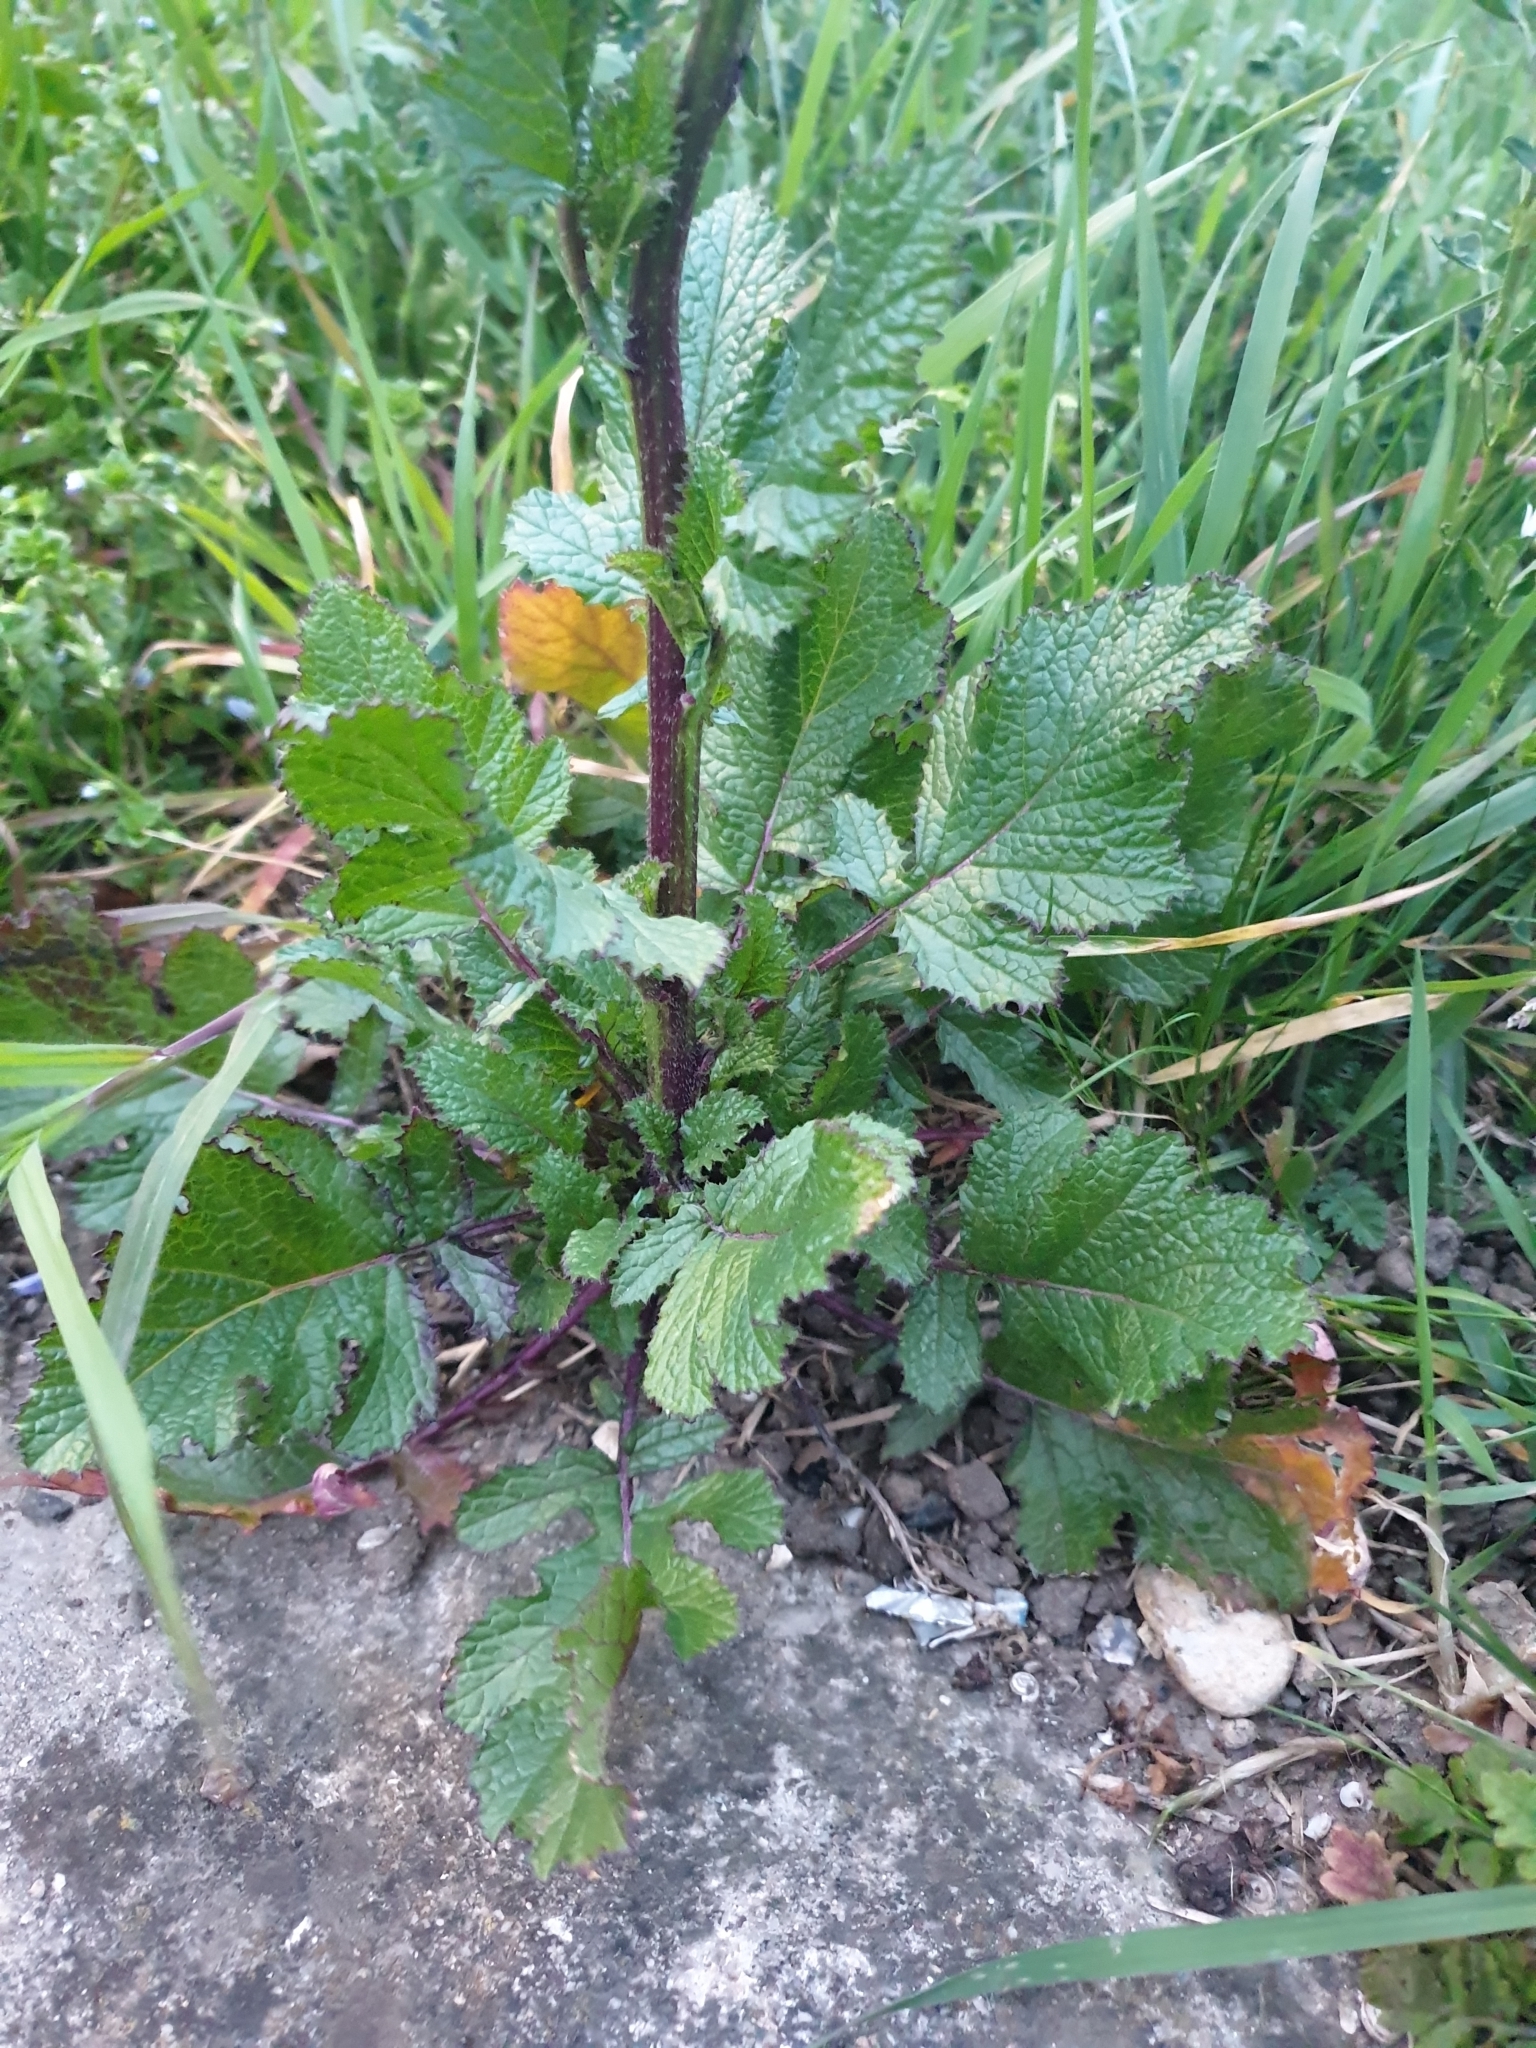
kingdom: Plantae
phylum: Tracheophyta
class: Magnoliopsida
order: Brassicales
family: Brassicaceae
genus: Sinapis
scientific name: Sinapis arvensis
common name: Charlock
